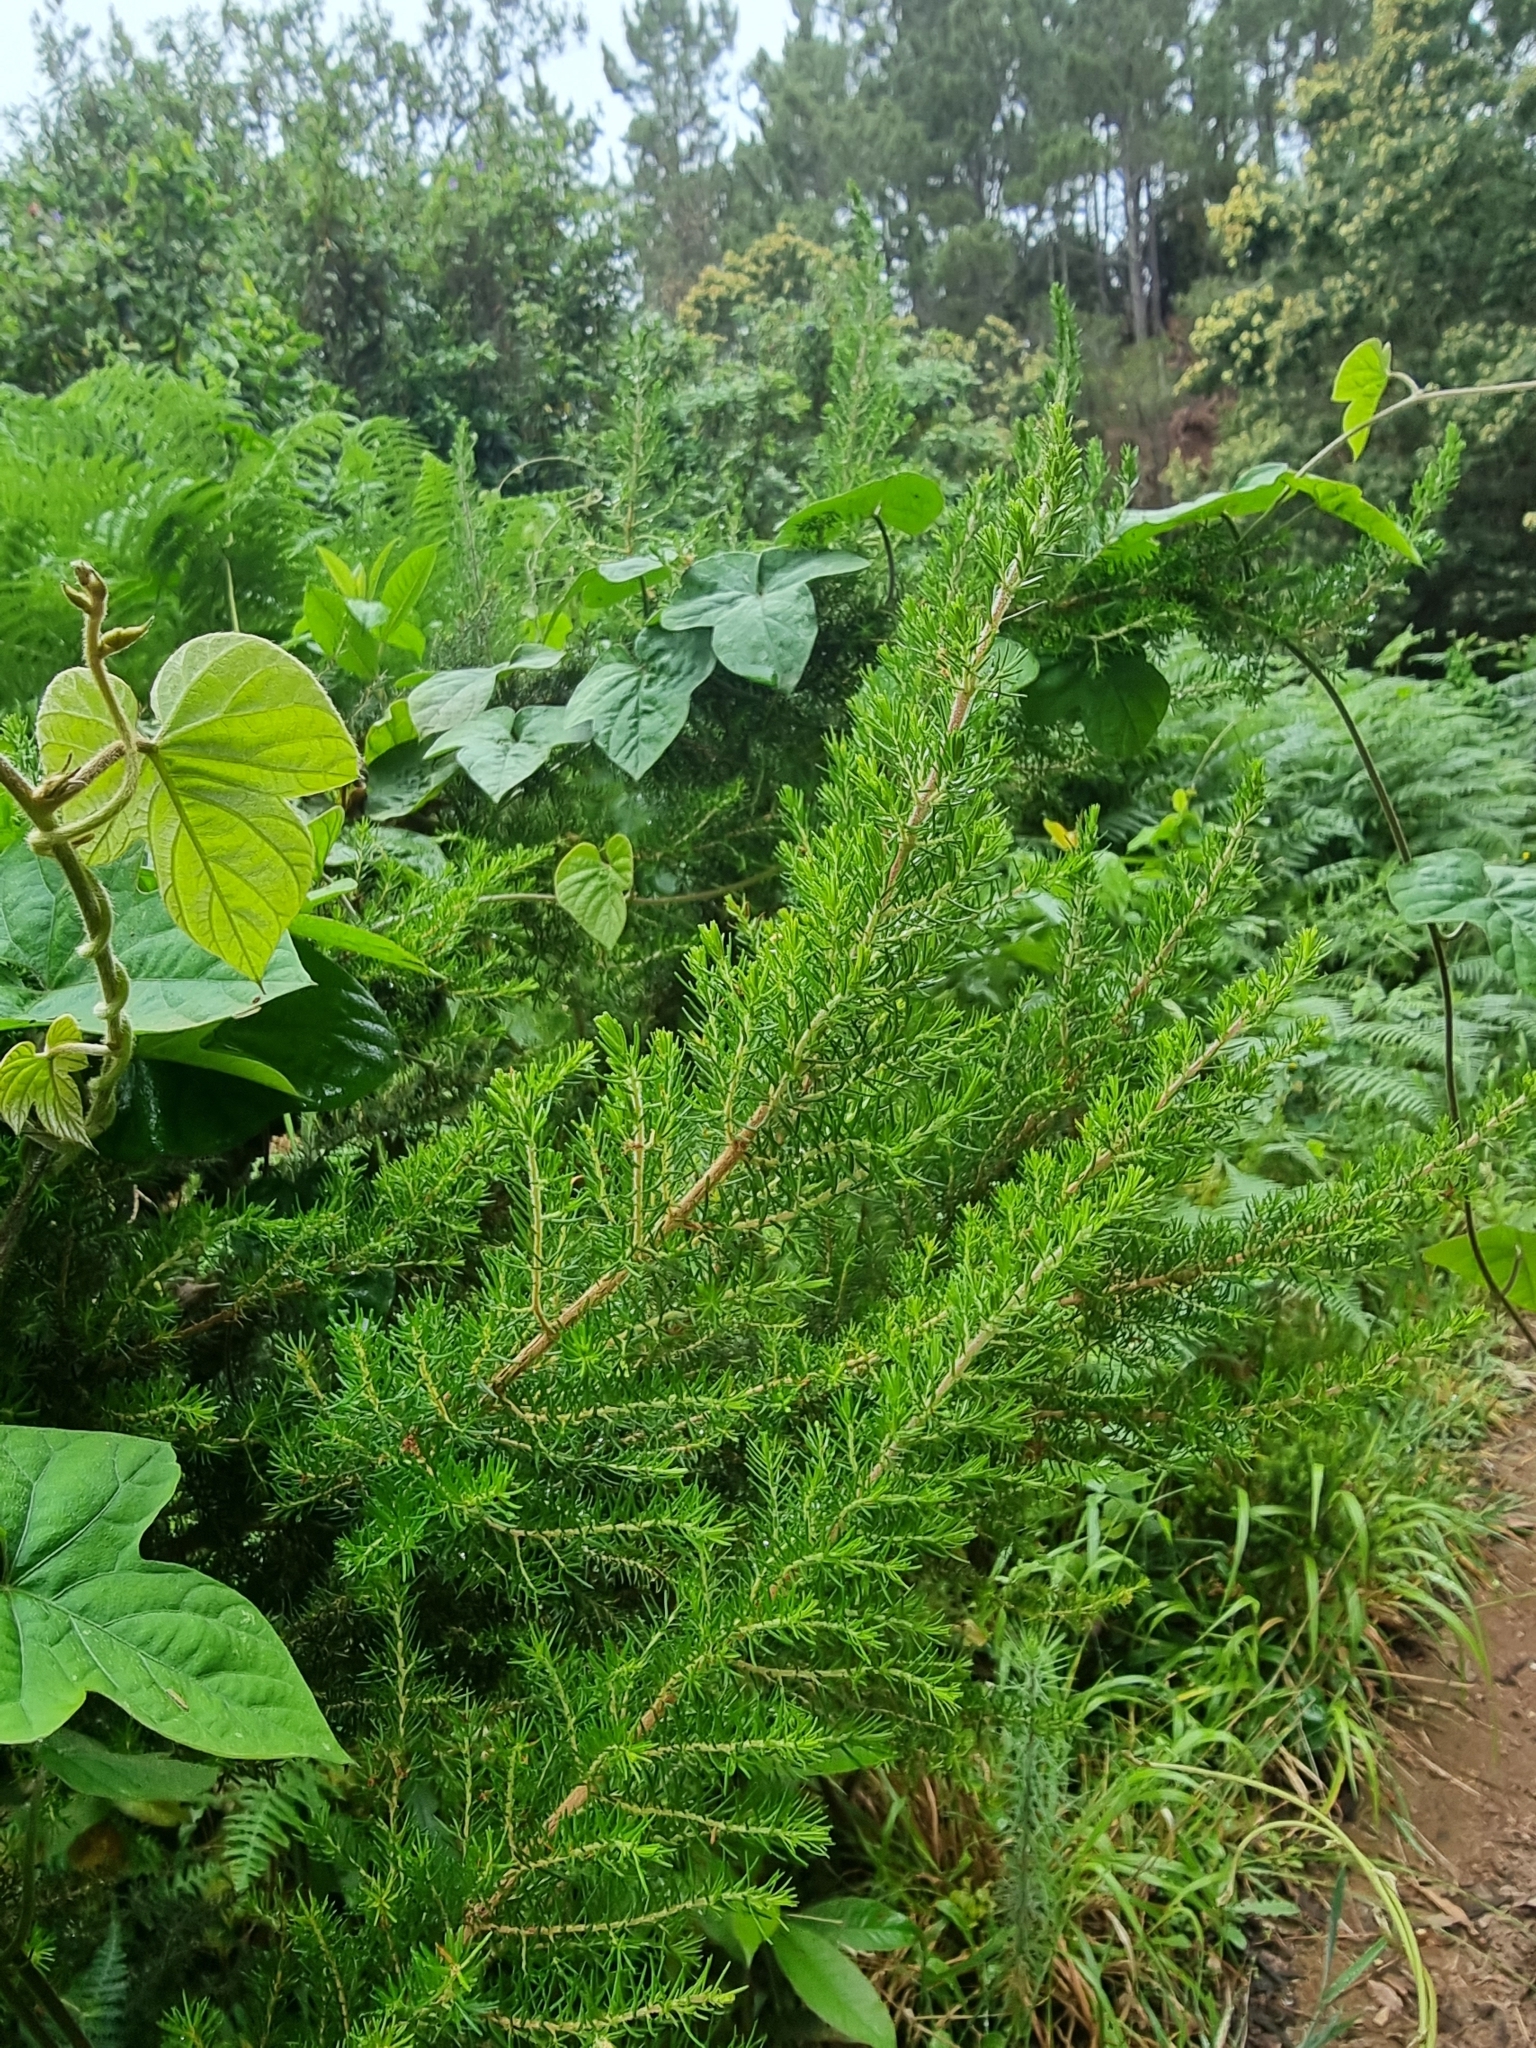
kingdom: Plantae
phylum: Tracheophyta
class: Magnoliopsida
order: Ericales
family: Ericaceae
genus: Erica
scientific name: Erica canariensis
